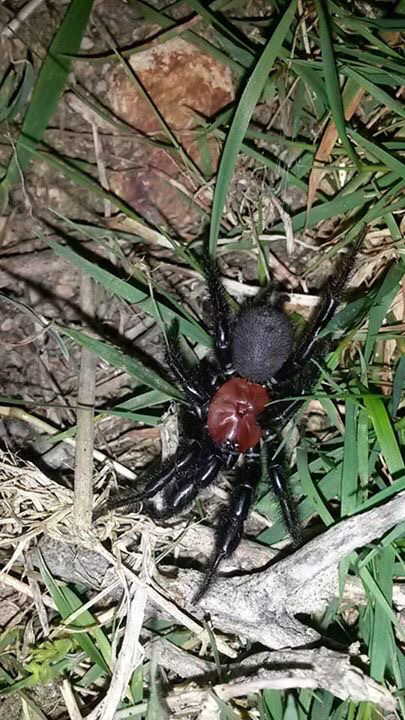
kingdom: Animalia
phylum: Arthropoda
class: Arachnida
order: Araneae
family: Porrhothelidae
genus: Porrhothele
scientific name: Porrhothele antipodiana
